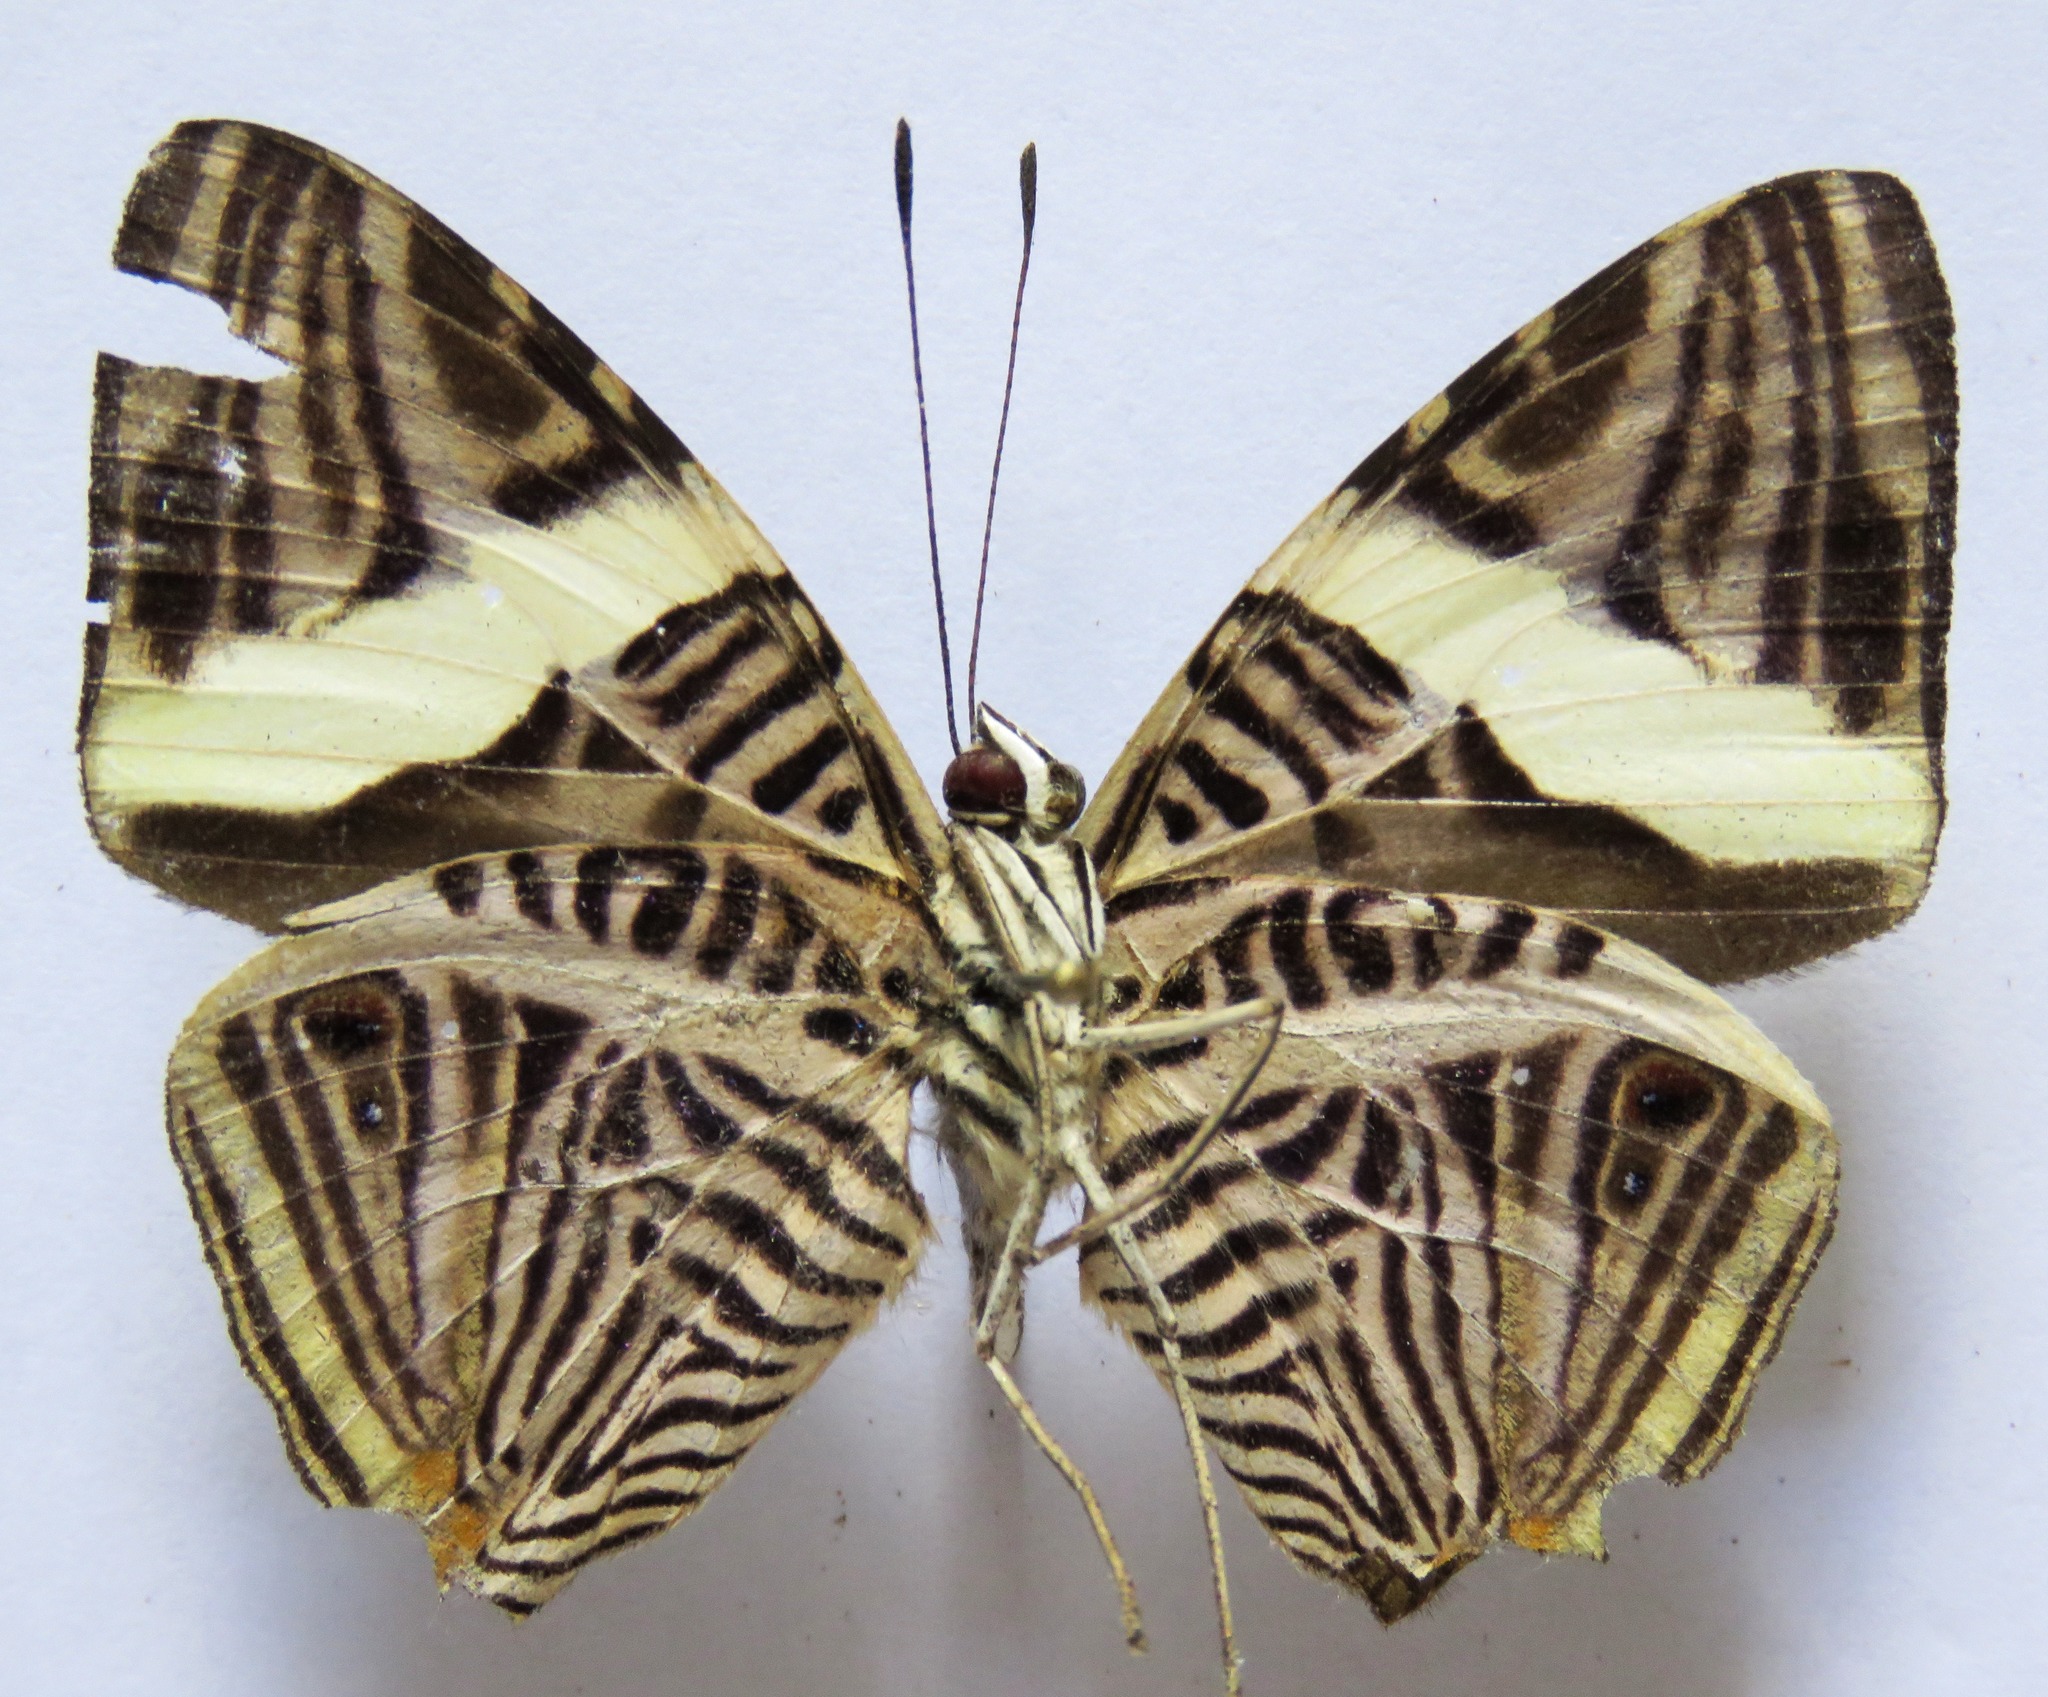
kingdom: Animalia
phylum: Arthropoda
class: Insecta
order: Lepidoptera
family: Nymphalidae
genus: Colobura
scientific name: Colobura dirce
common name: Dirce beauty
